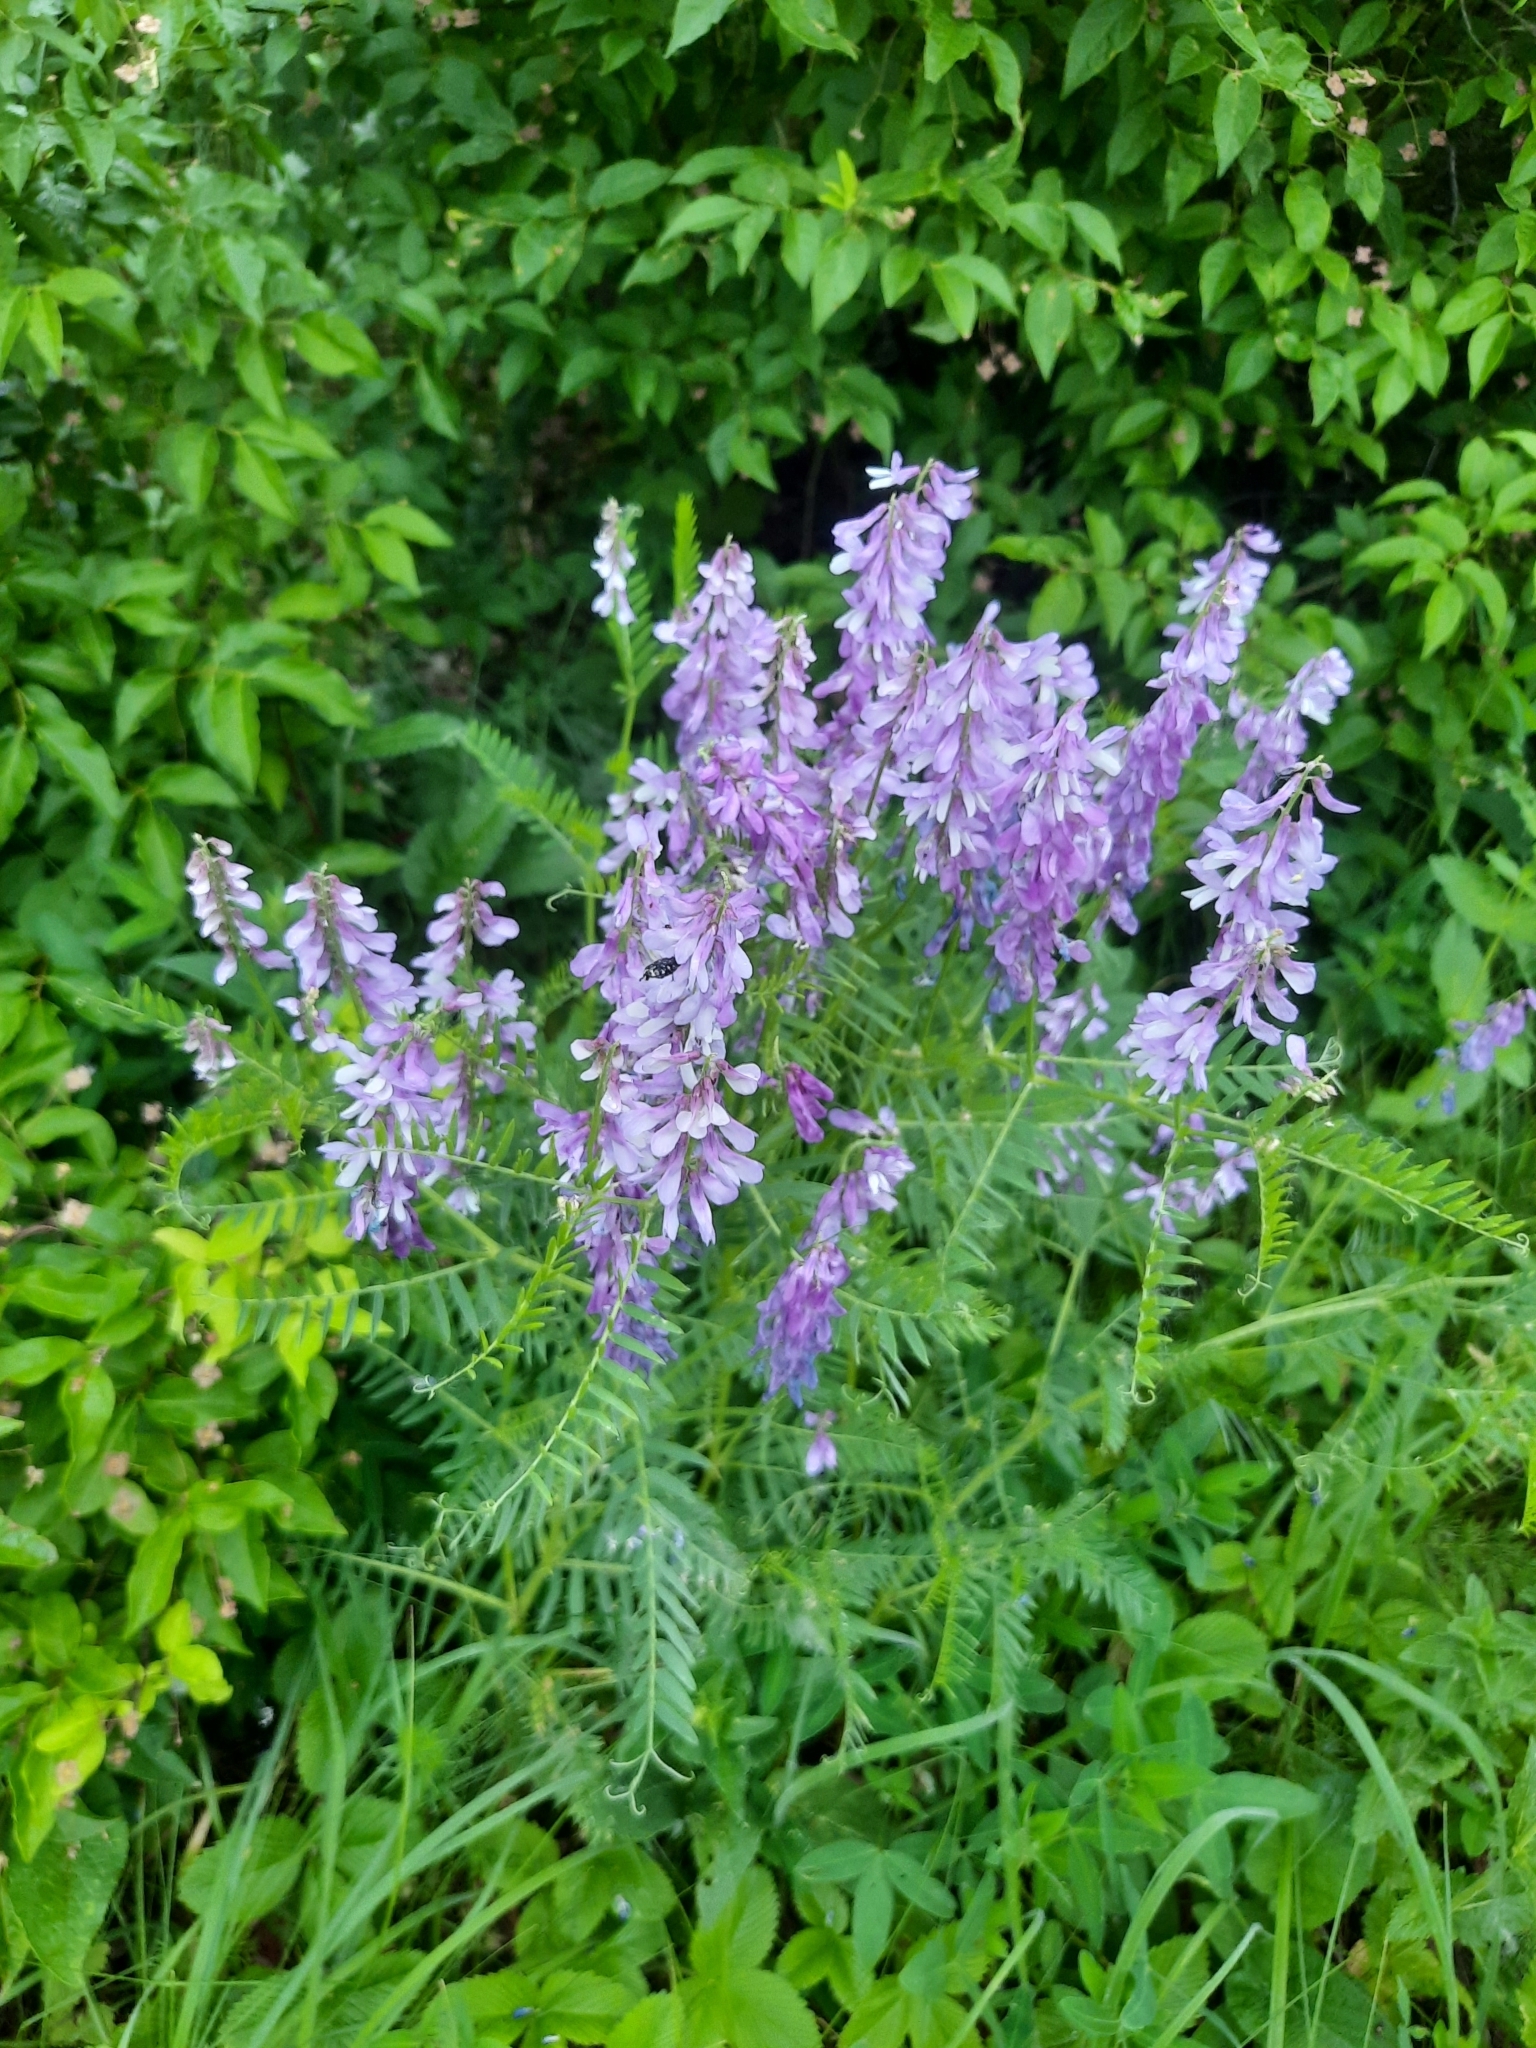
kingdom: Plantae
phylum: Tracheophyta
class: Magnoliopsida
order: Fabales
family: Fabaceae
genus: Vicia
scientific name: Vicia tenuifolia
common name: Fine-leaved vetch
